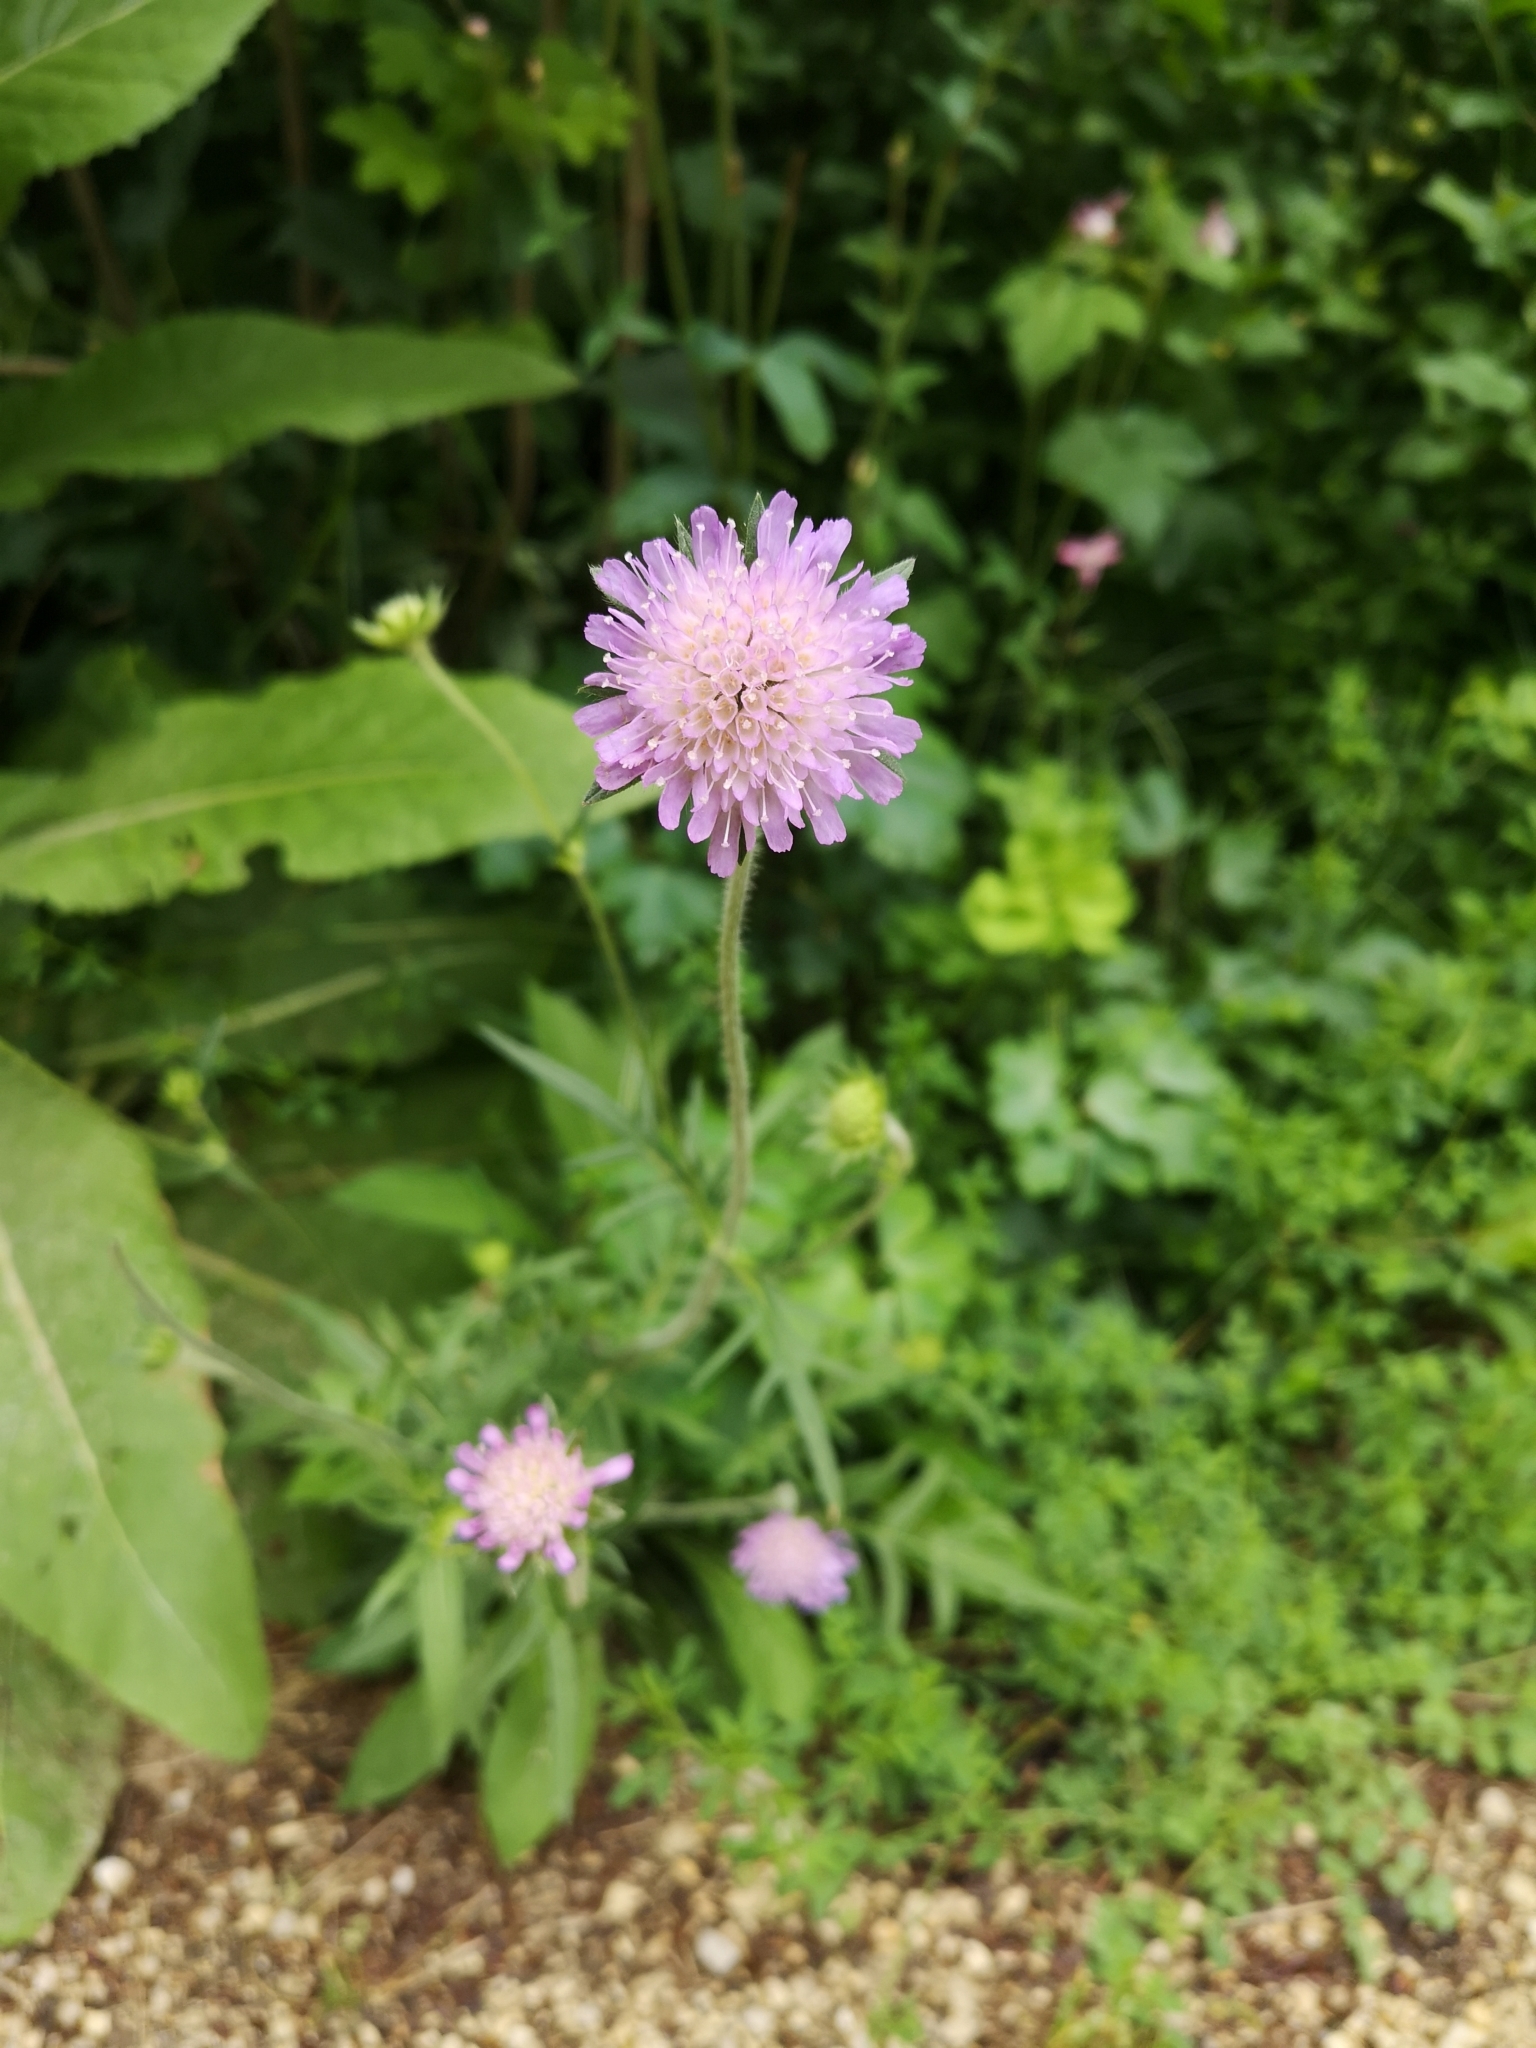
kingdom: Plantae
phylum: Tracheophyta
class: Magnoliopsida
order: Dipsacales
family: Caprifoliaceae
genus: Knautia
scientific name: Knautia arvensis
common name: Field scabiosa
